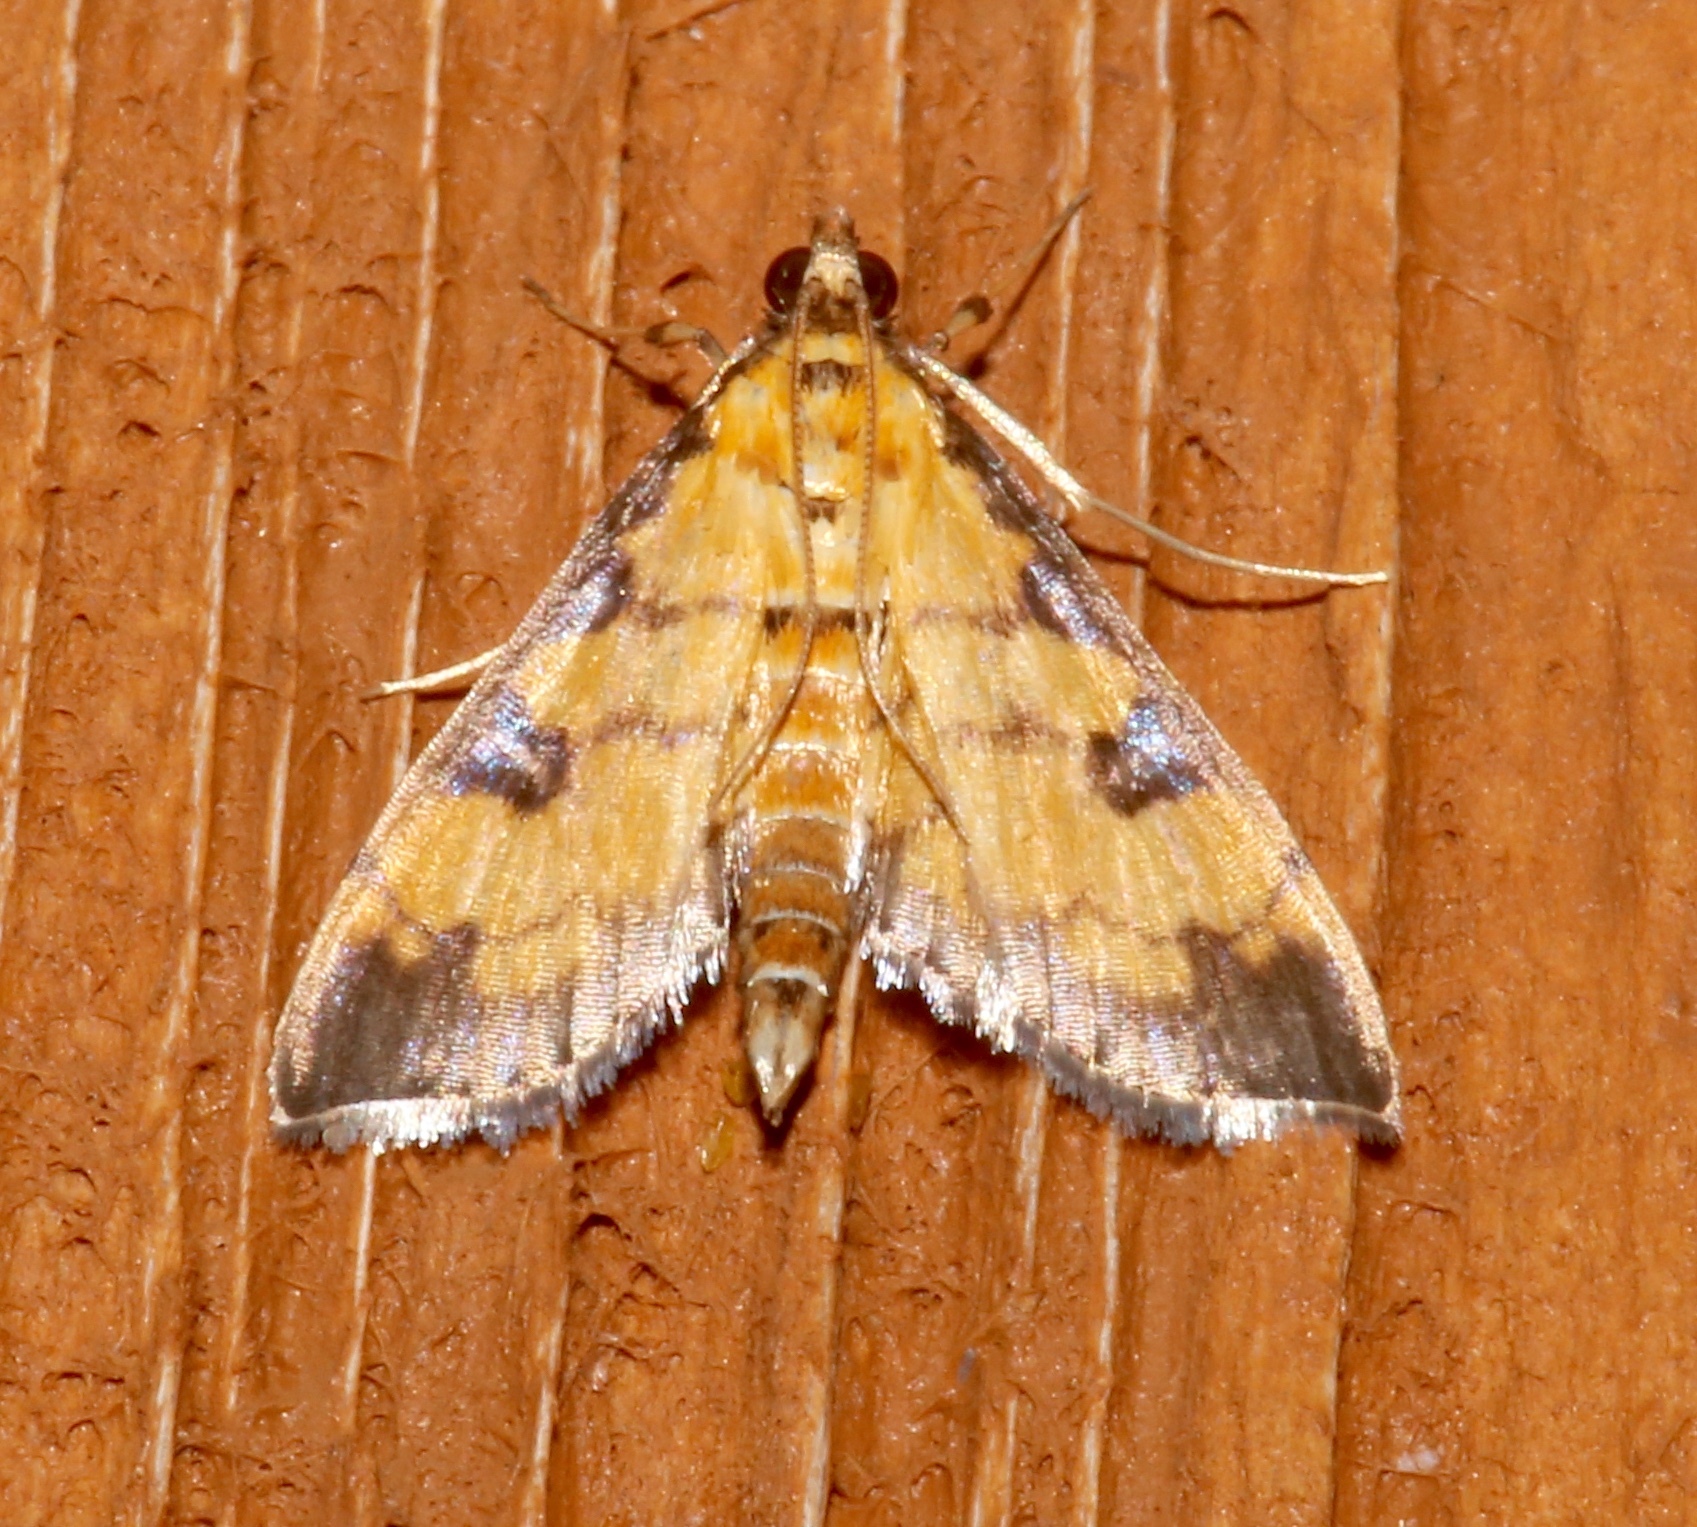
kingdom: Animalia
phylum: Arthropoda
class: Insecta
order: Lepidoptera
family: Crambidae
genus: Ategumia
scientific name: Ategumia ebulealis
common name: Moth
